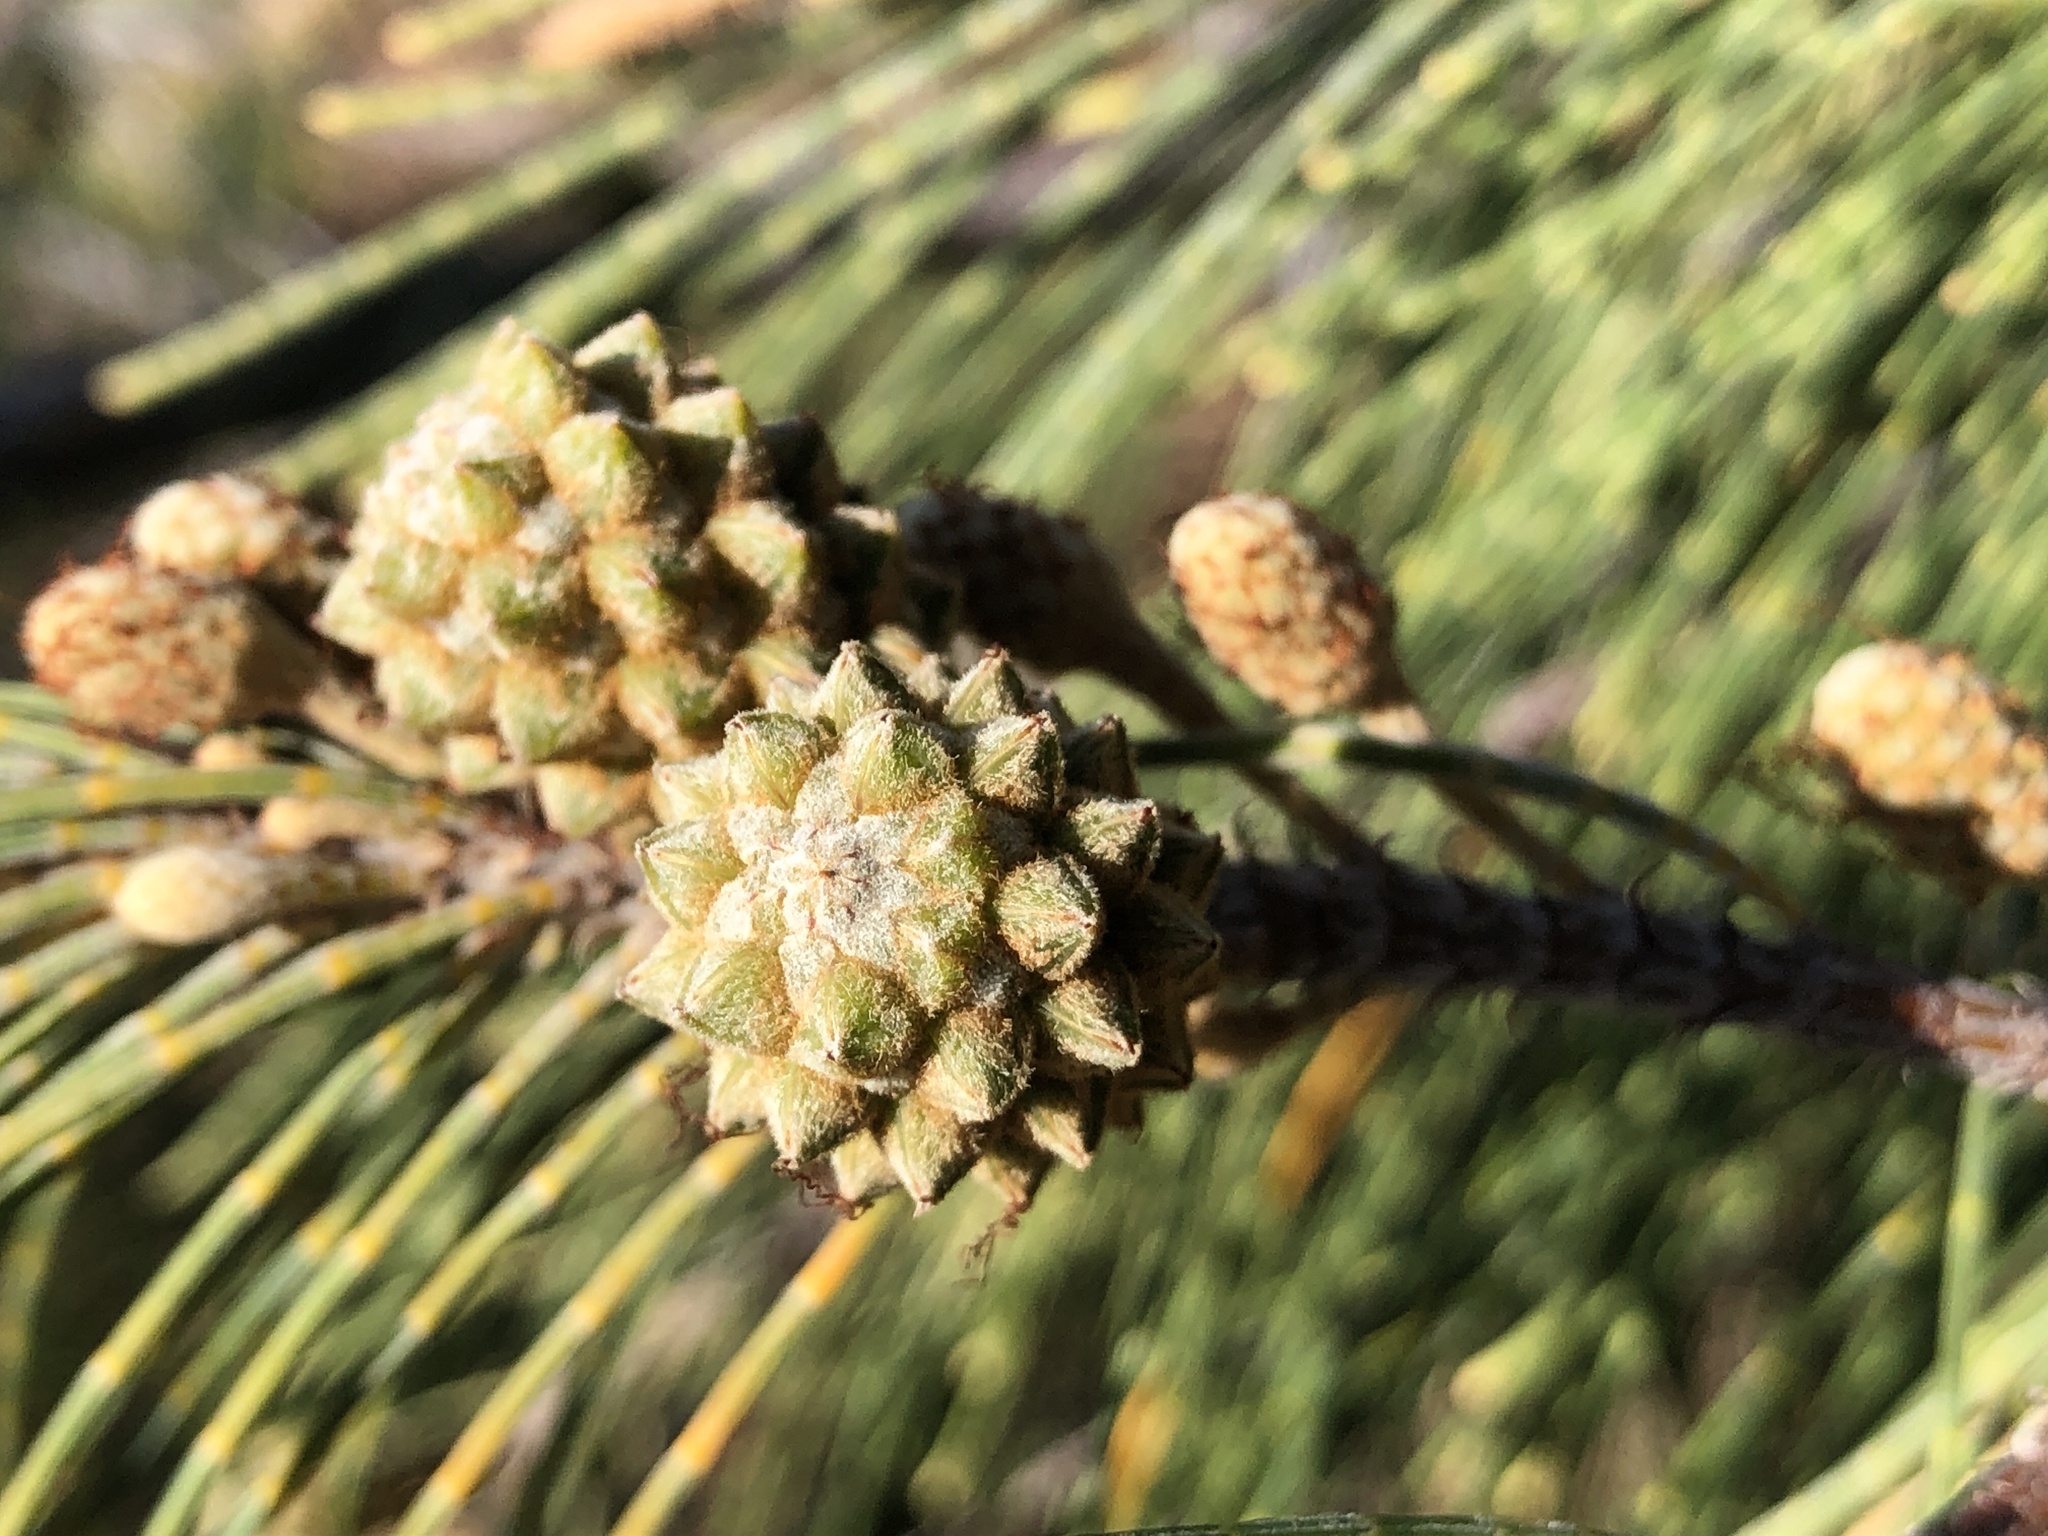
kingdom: Plantae
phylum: Tracheophyta
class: Magnoliopsida
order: Fagales
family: Casuarinaceae
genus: Casuarina
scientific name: Casuarina equisetifolia
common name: Beach sheoak
